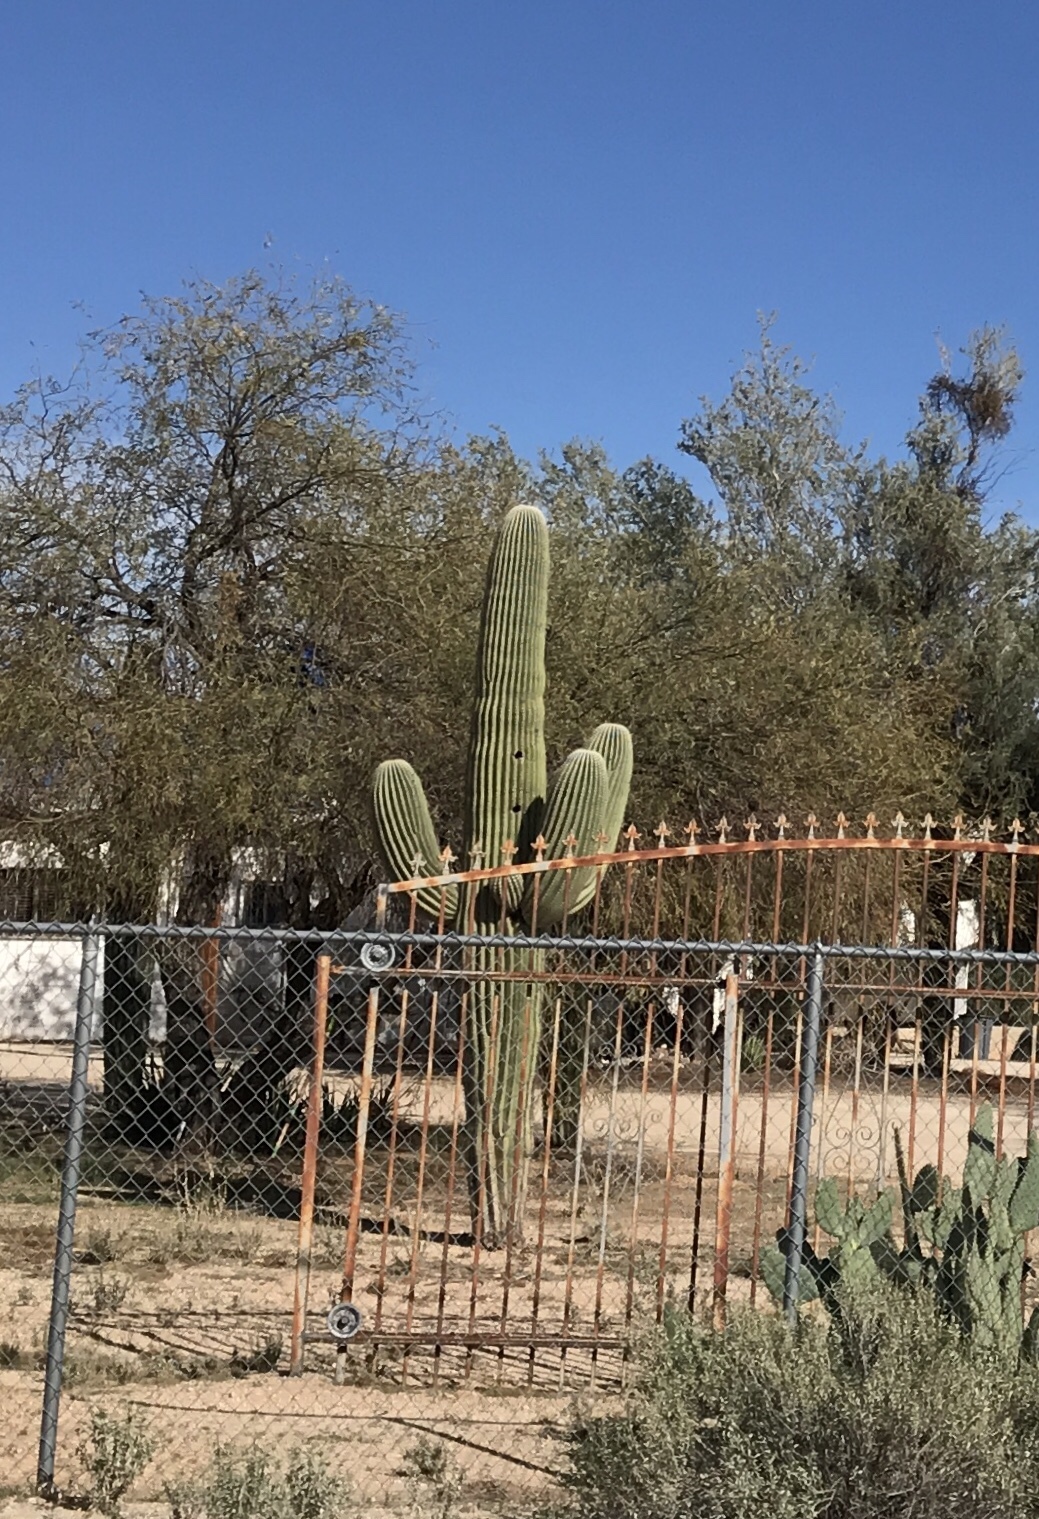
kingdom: Plantae
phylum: Tracheophyta
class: Magnoliopsida
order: Caryophyllales
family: Cactaceae
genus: Carnegiea
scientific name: Carnegiea gigantea
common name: Saguaro
